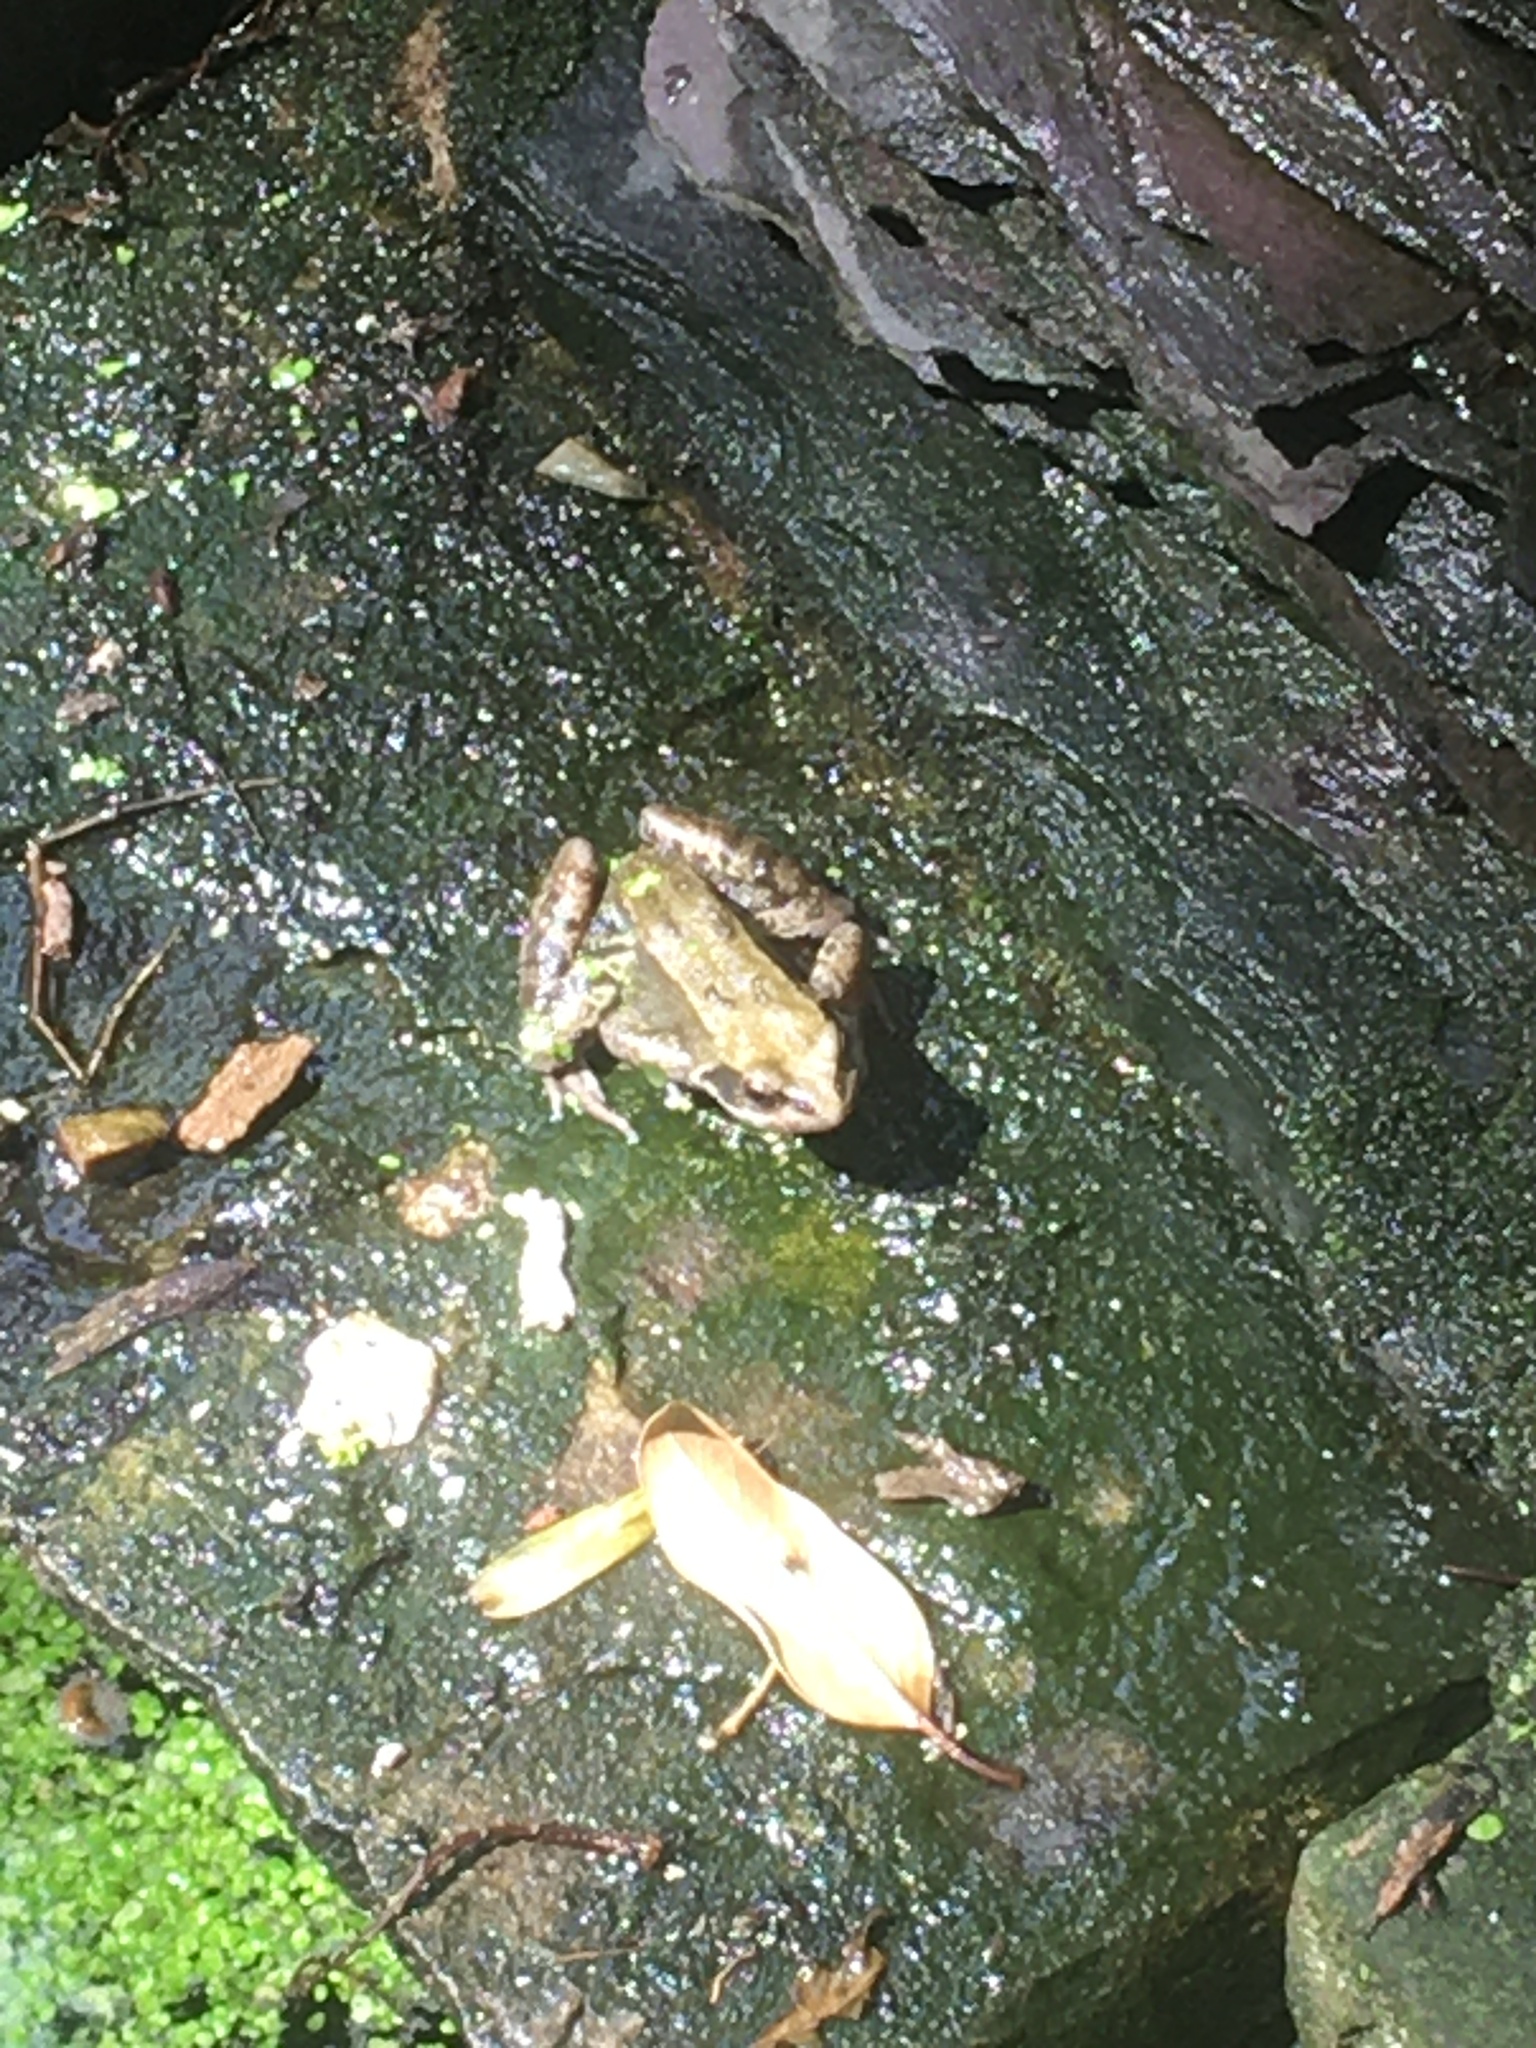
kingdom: Animalia
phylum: Chordata
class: Amphibia
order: Anura
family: Ranidae
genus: Rana
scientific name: Rana temporaria
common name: Common frog
